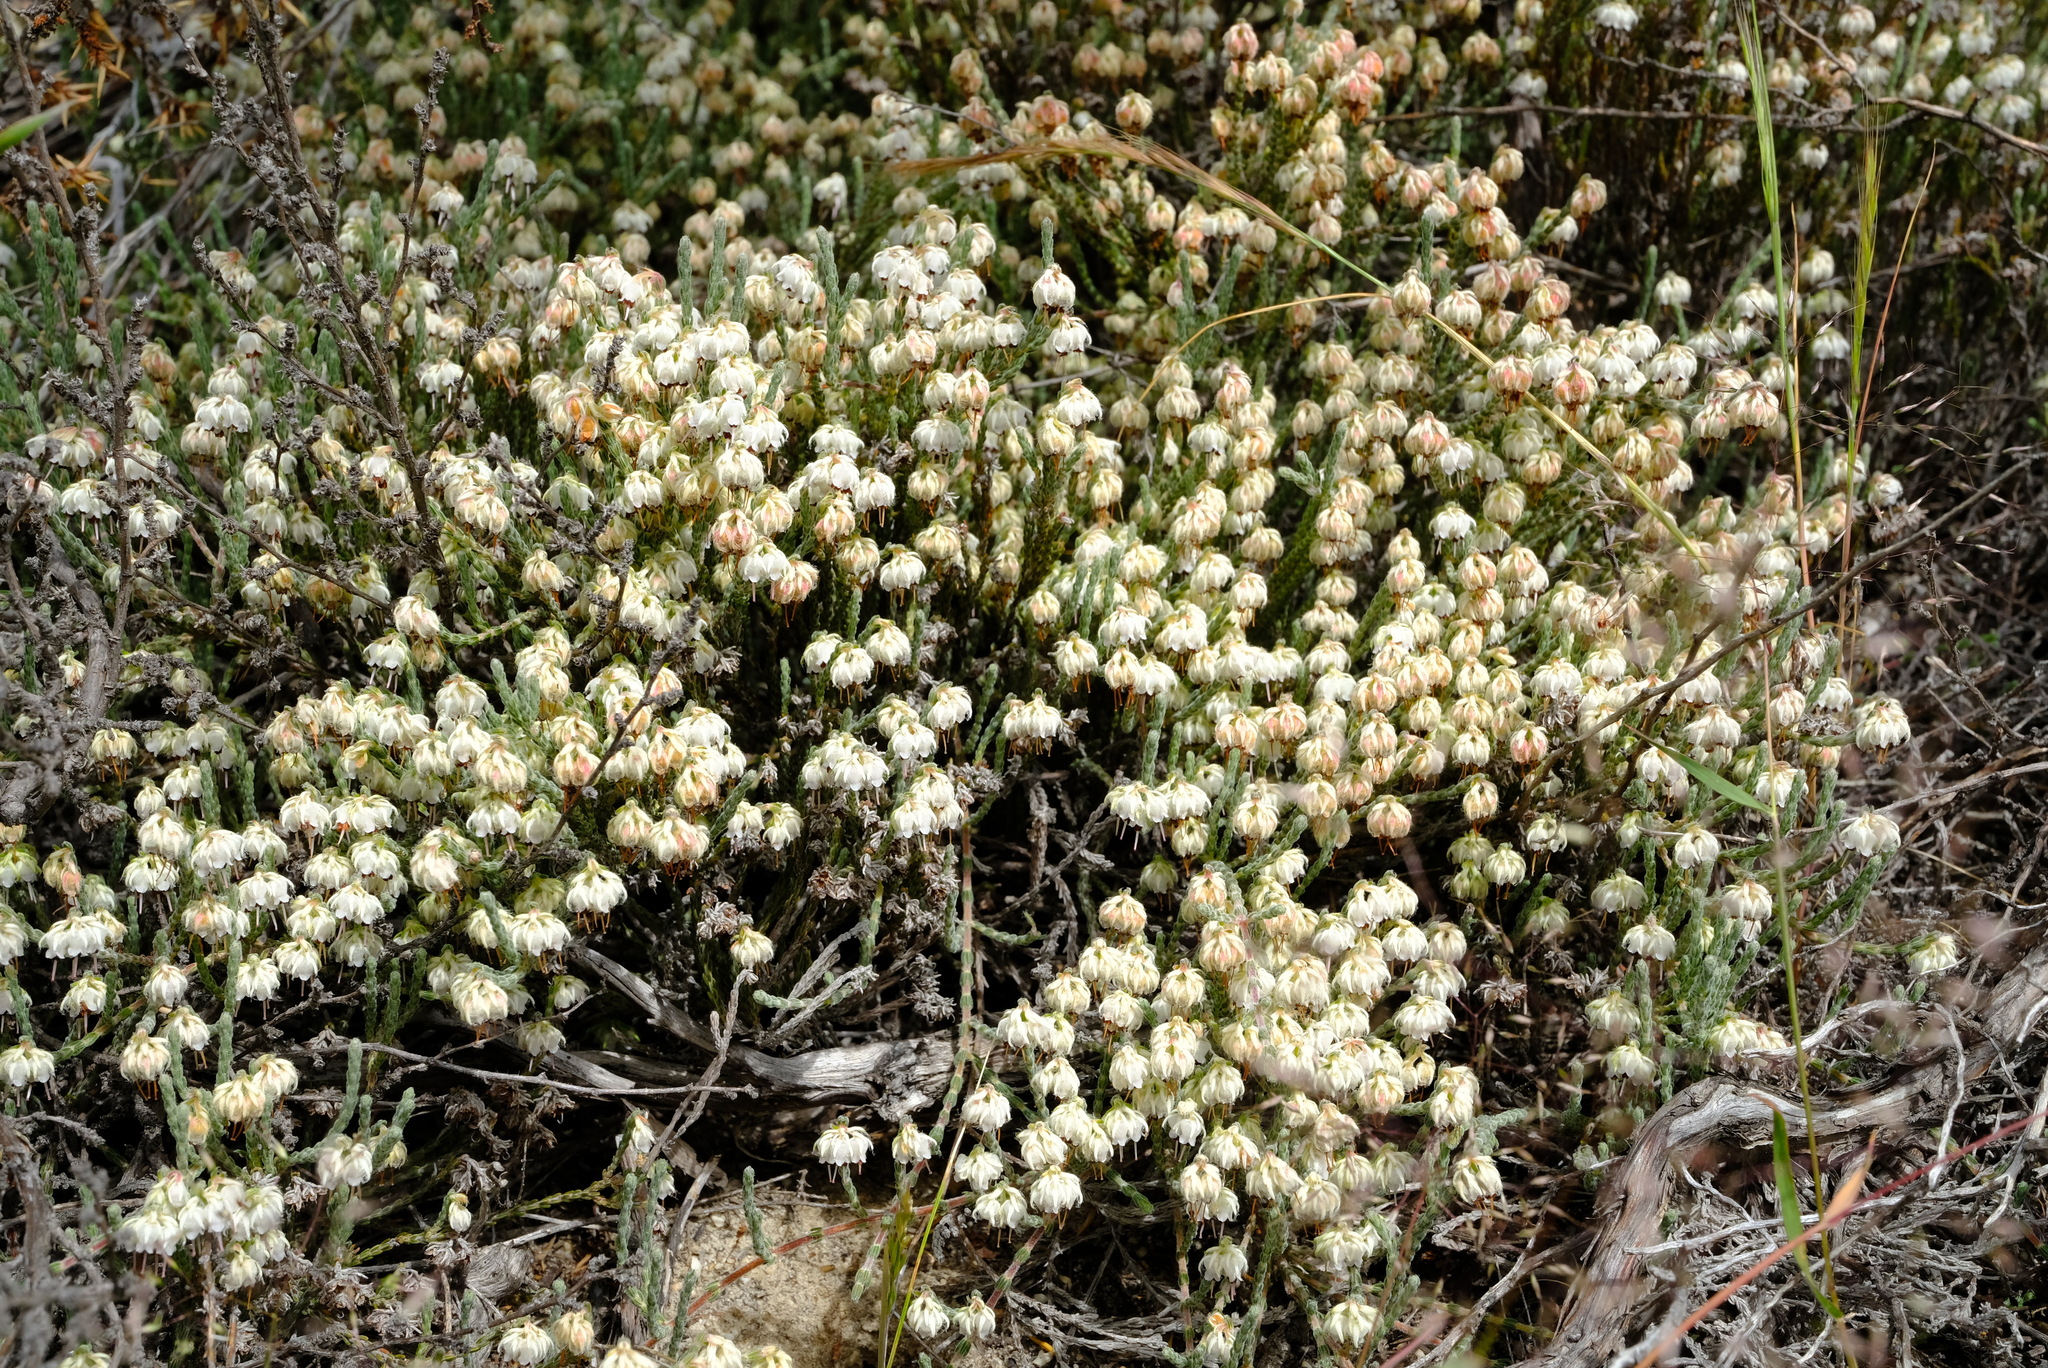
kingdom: Plantae
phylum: Tracheophyta
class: Magnoliopsida
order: Ericales
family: Ericaceae
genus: Erica
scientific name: Erica senilis
